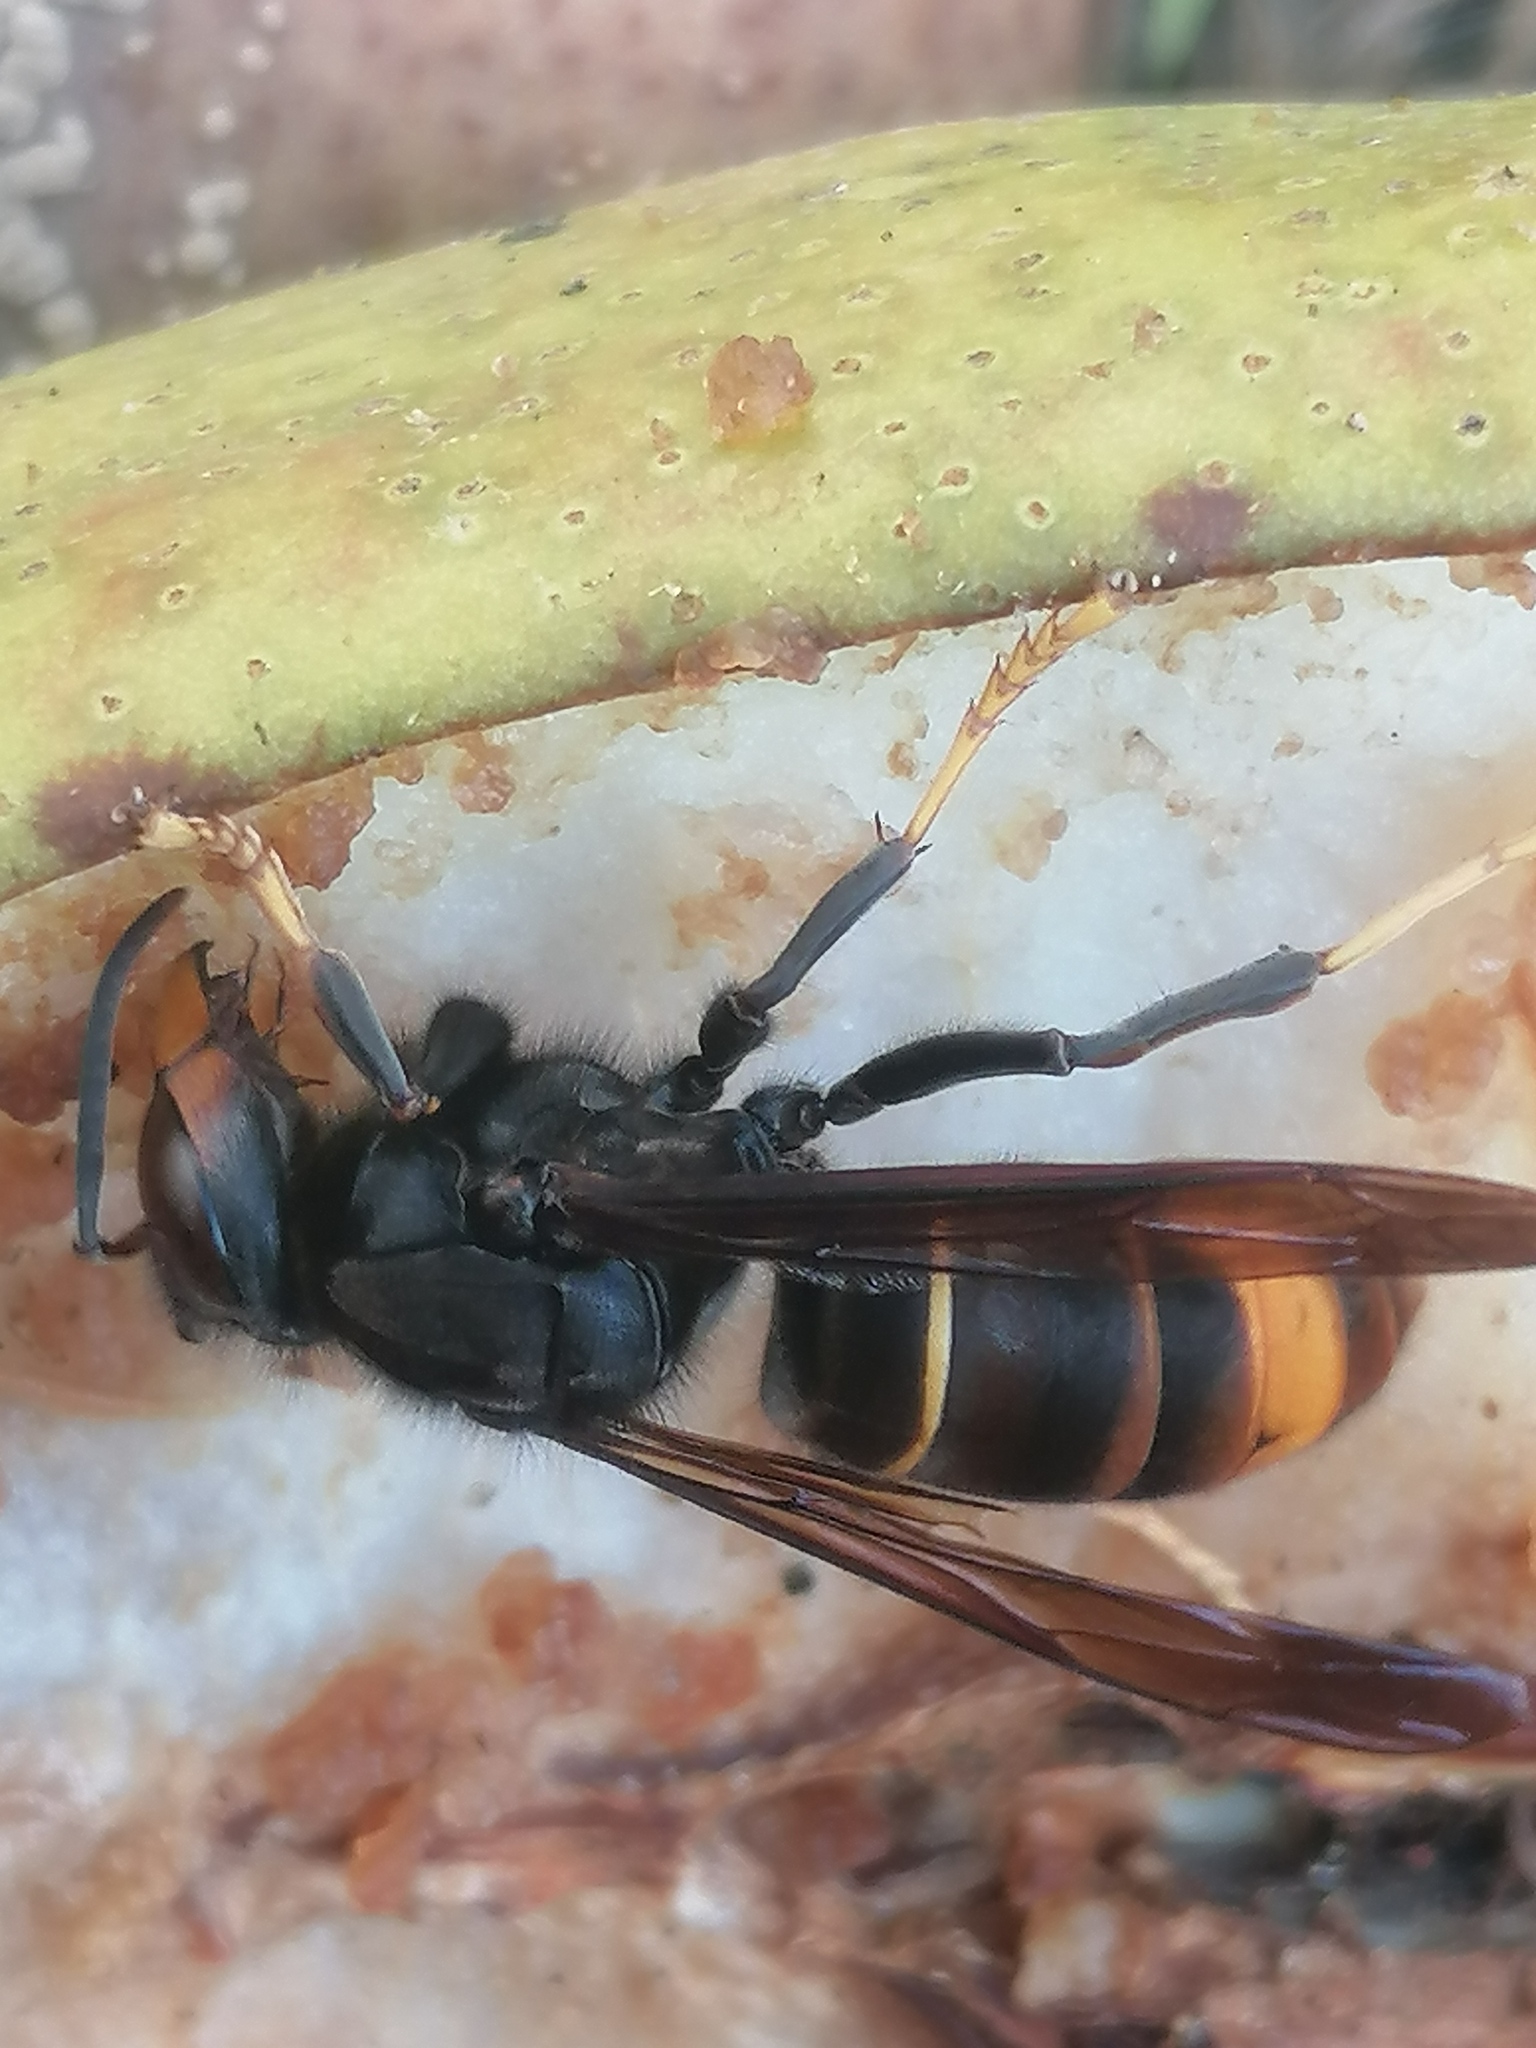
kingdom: Animalia
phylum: Arthropoda
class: Insecta
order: Hymenoptera
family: Vespidae
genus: Vespa
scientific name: Vespa velutina
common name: Asian hornet
